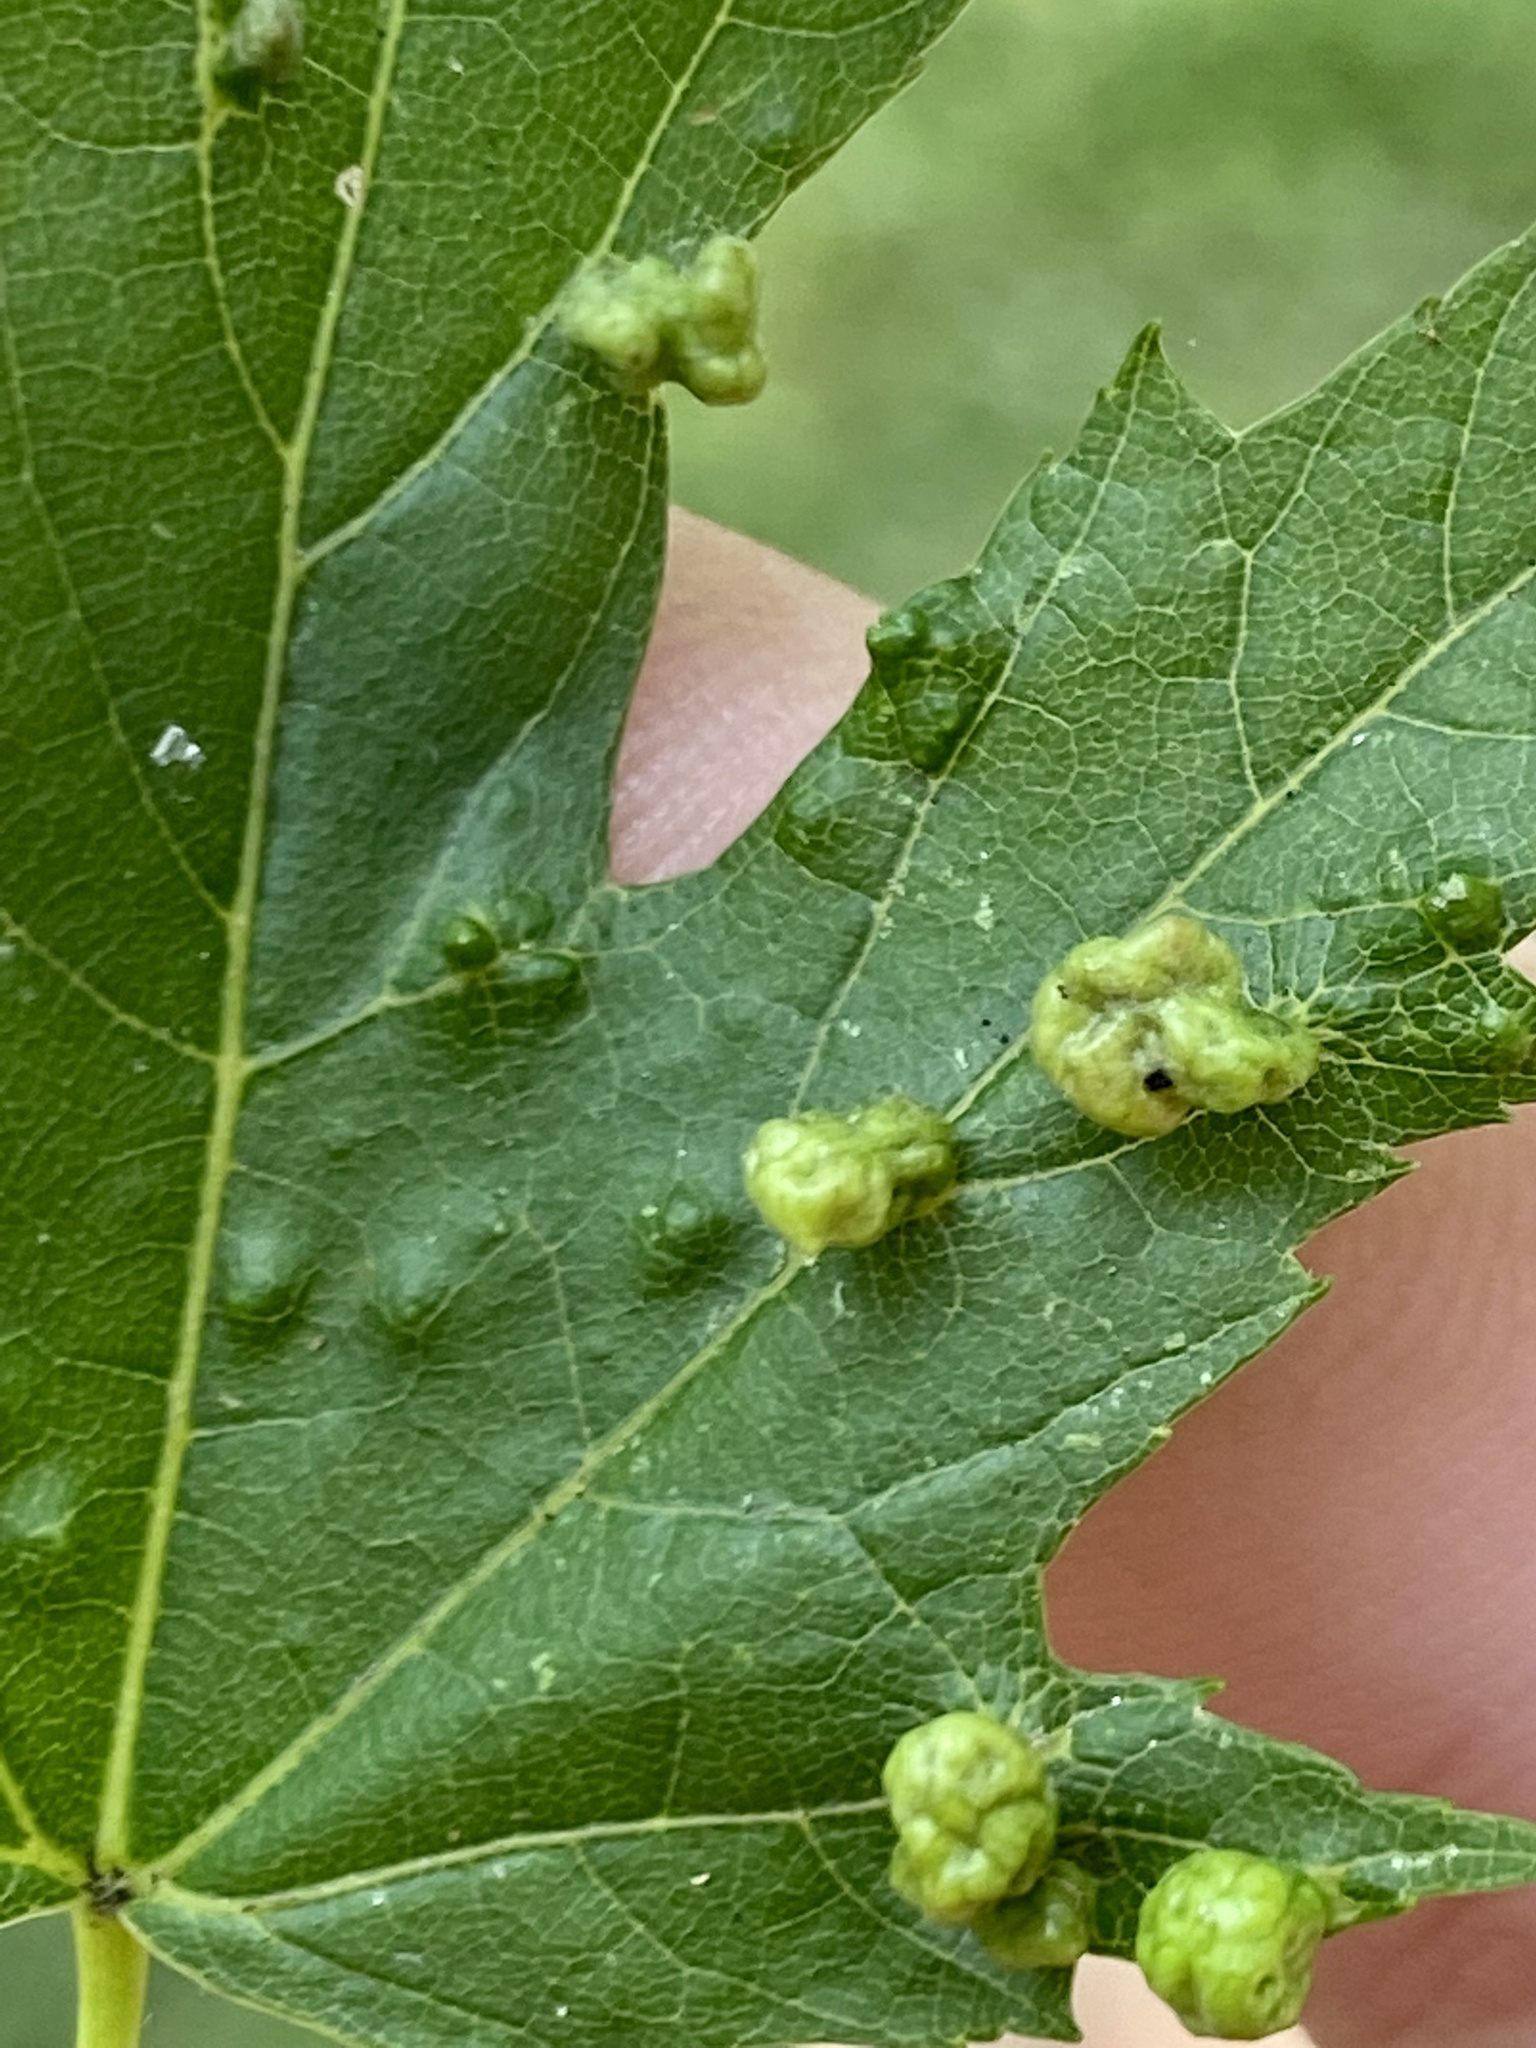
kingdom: Animalia
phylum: Arthropoda
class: Arachnida
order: Trombidiformes
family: Eriophyidae
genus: Vasates
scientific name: Vasates quadripedes
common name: Maple bladder gall mite
